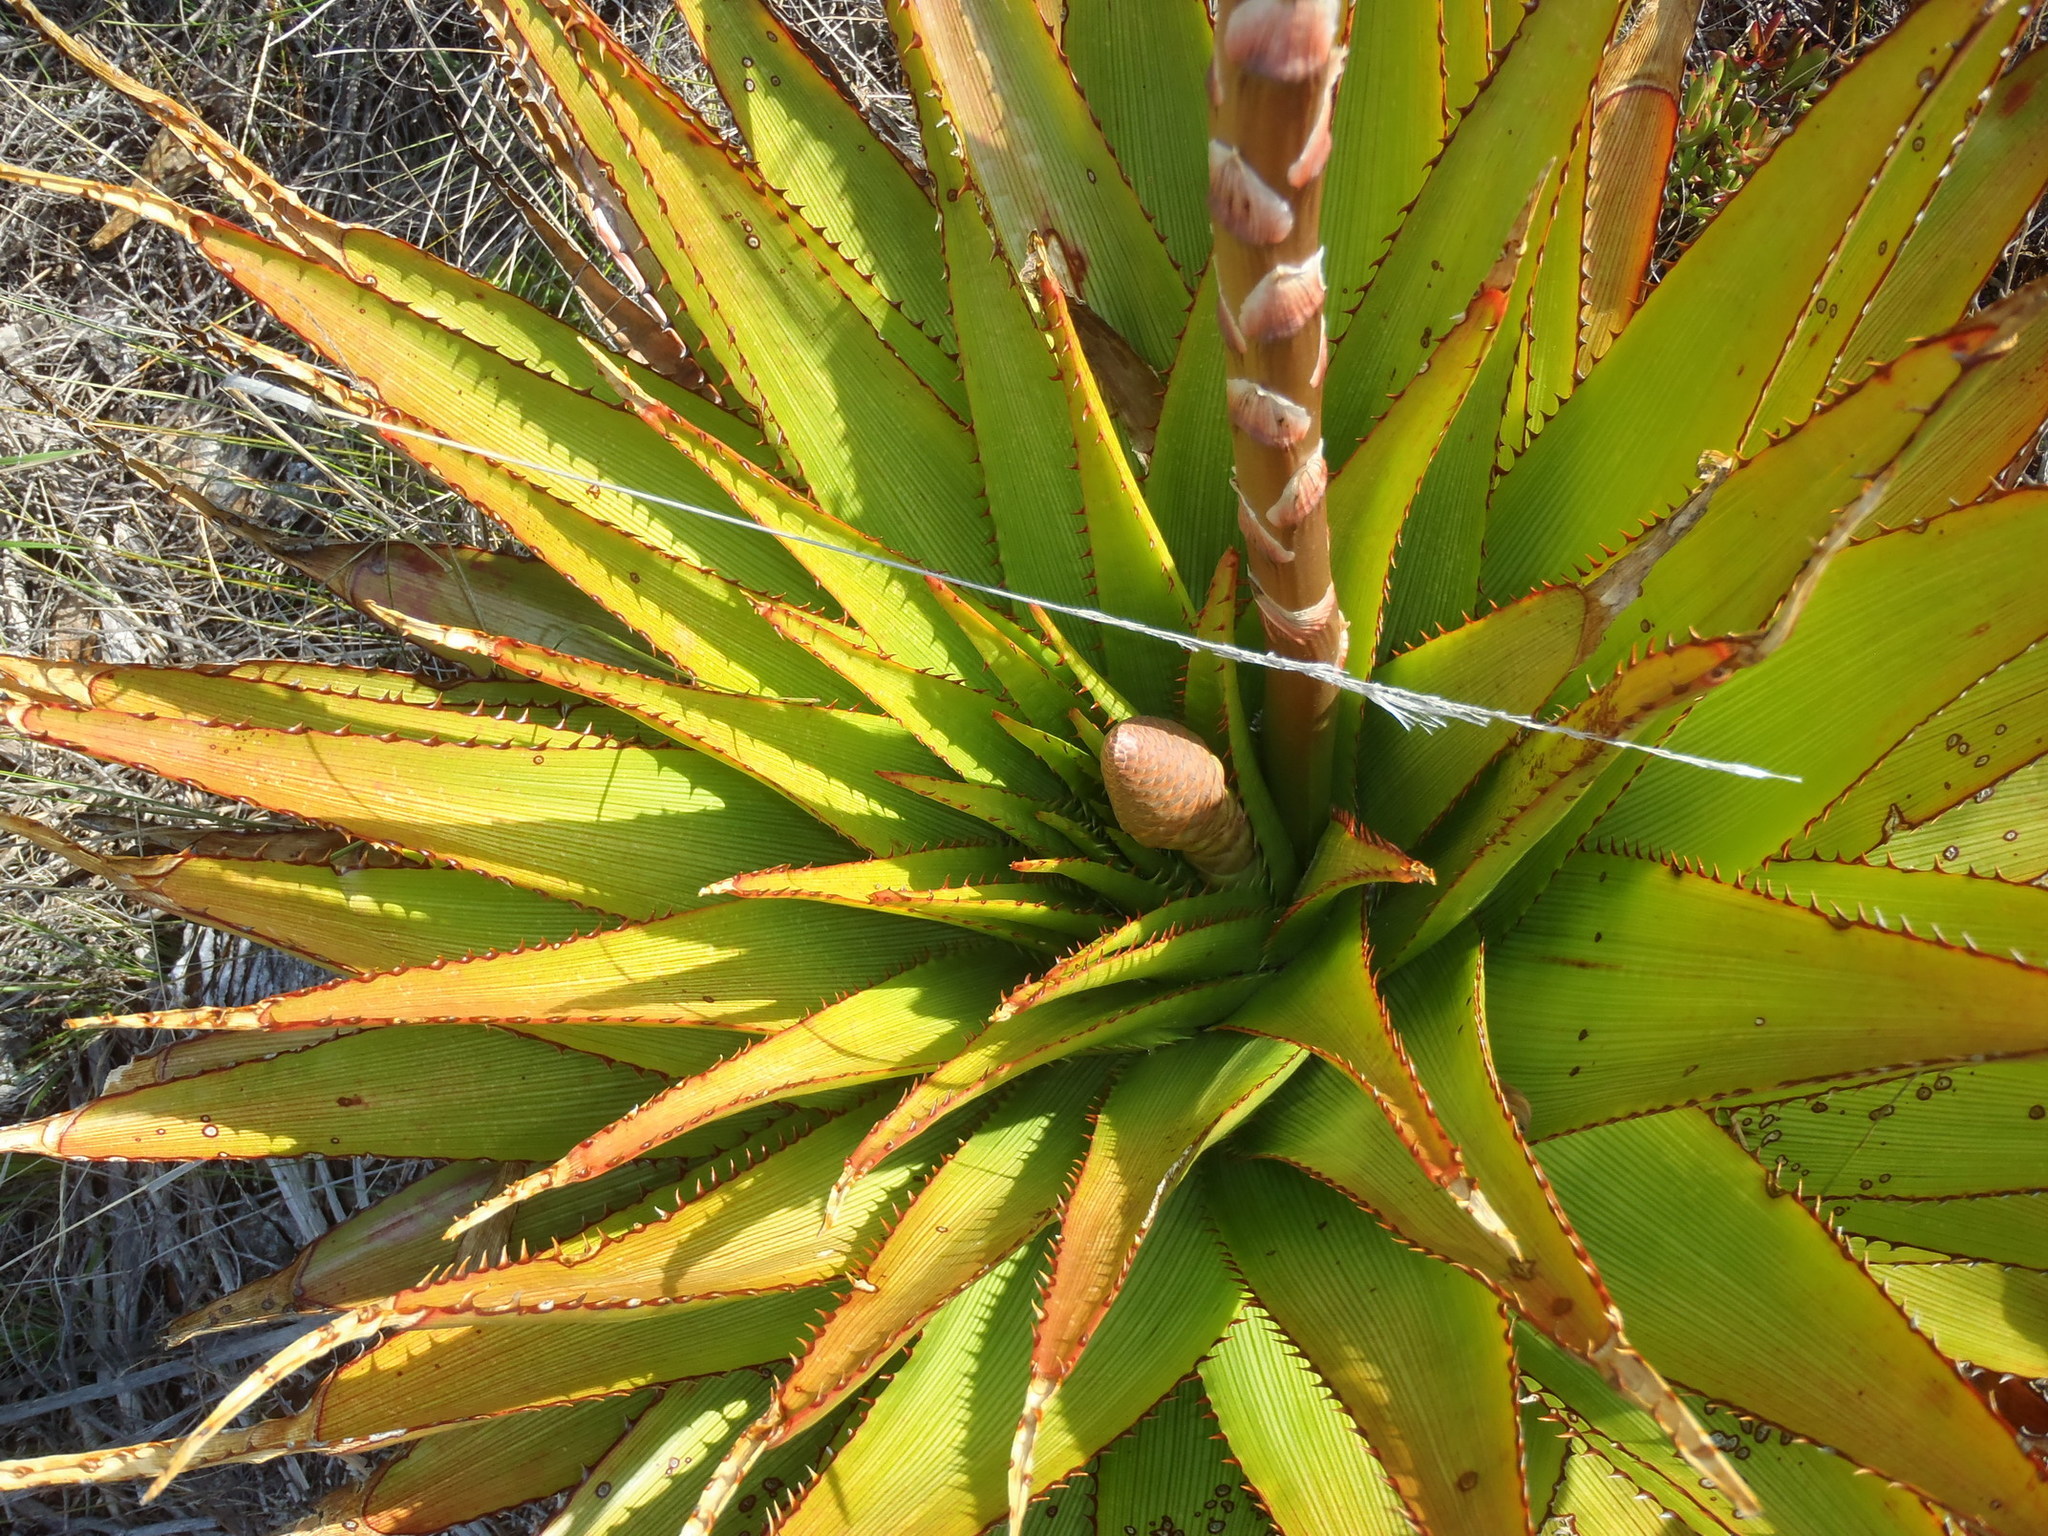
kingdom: Plantae
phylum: Tracheophyta
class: Liliopsida
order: Asparagales
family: Asphodelaceae
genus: Aloe
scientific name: Aloe lineata
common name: Lined red-spined aloe
